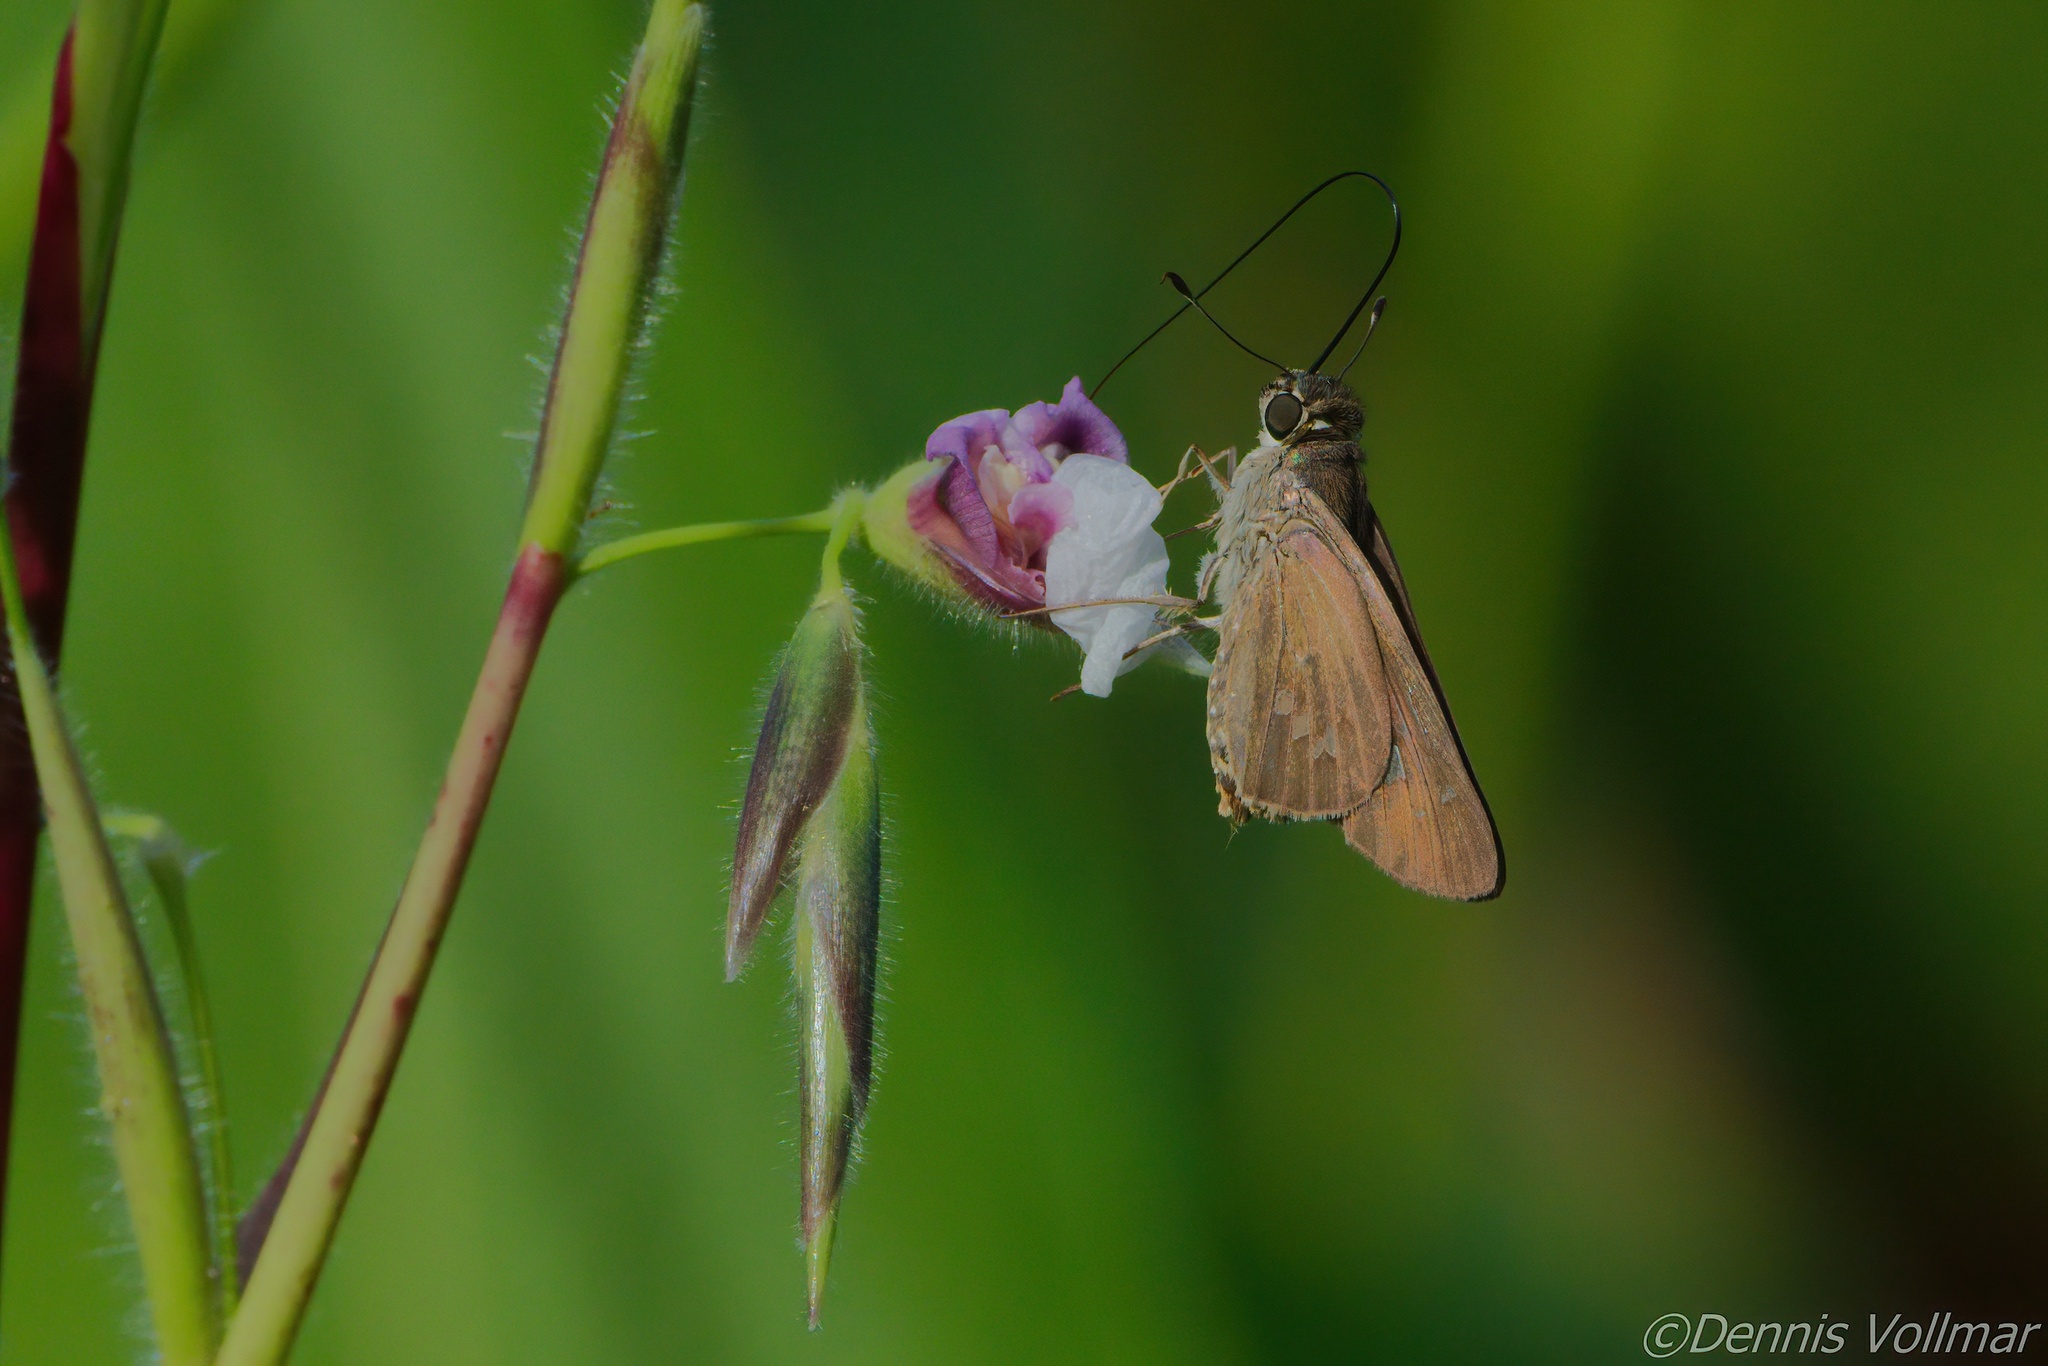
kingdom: Animalia
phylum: Arthropoda
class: Insecta
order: Lepidoptera
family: Hesperiidae
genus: Calpodes
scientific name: Calpodes ethlius
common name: Brazilian skipper
